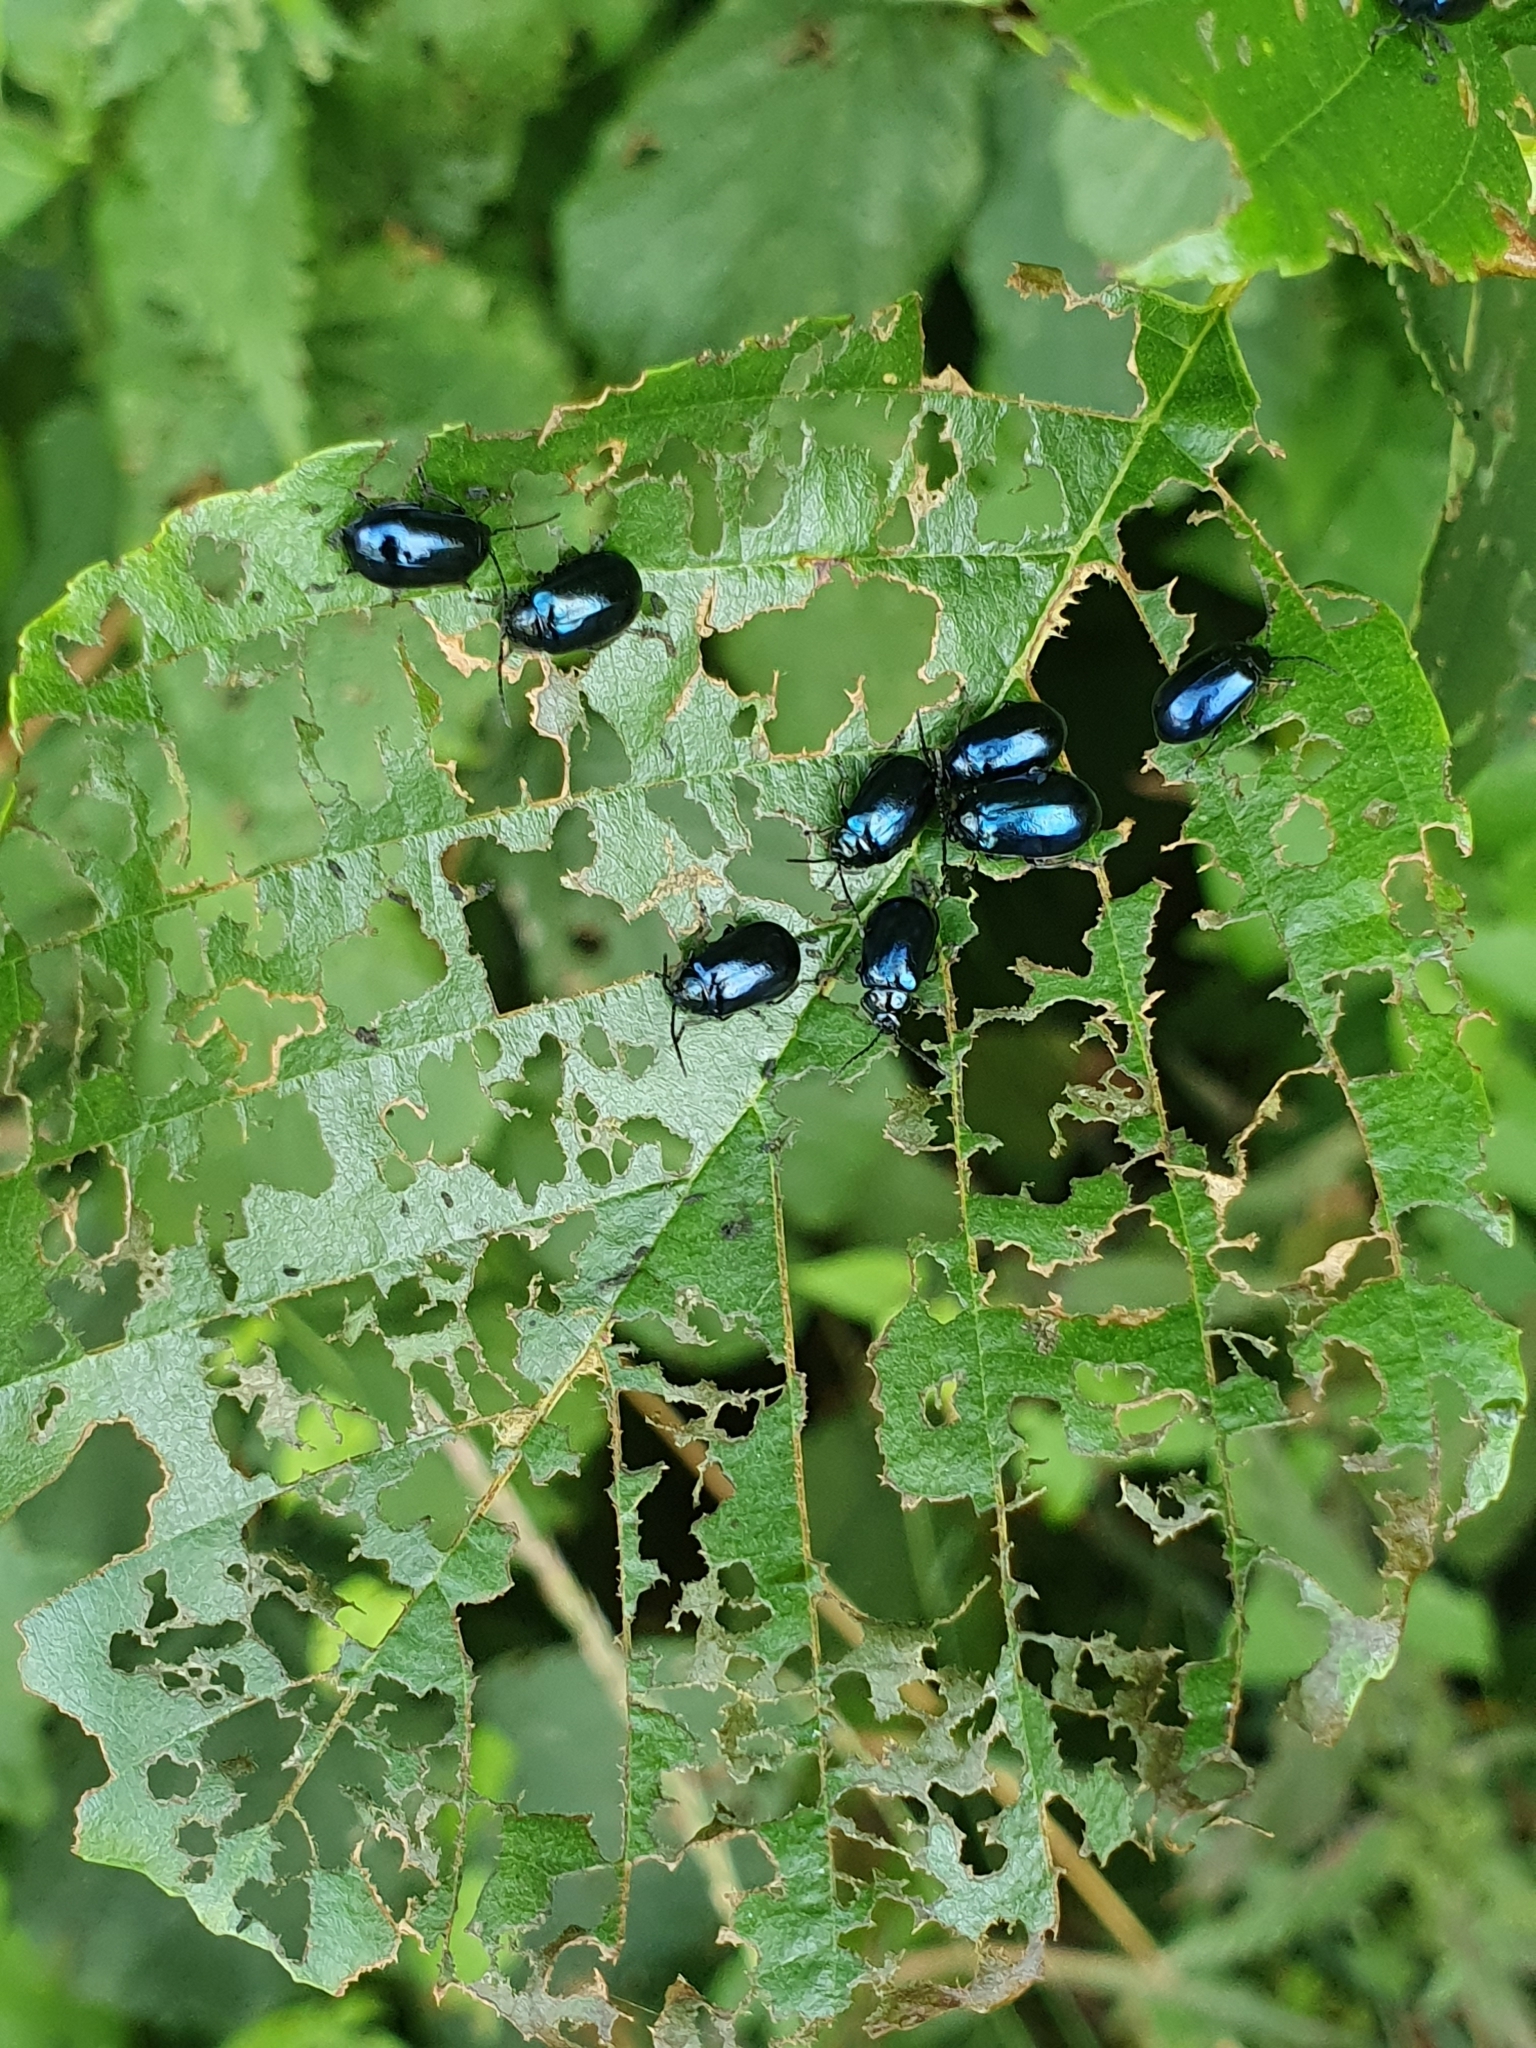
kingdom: Animalia
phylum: Arthropoda
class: Insecta
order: Coleoptera
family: Chrysomelidae
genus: Agelastica
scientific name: Agelastica alni
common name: Alder leaf beetle
